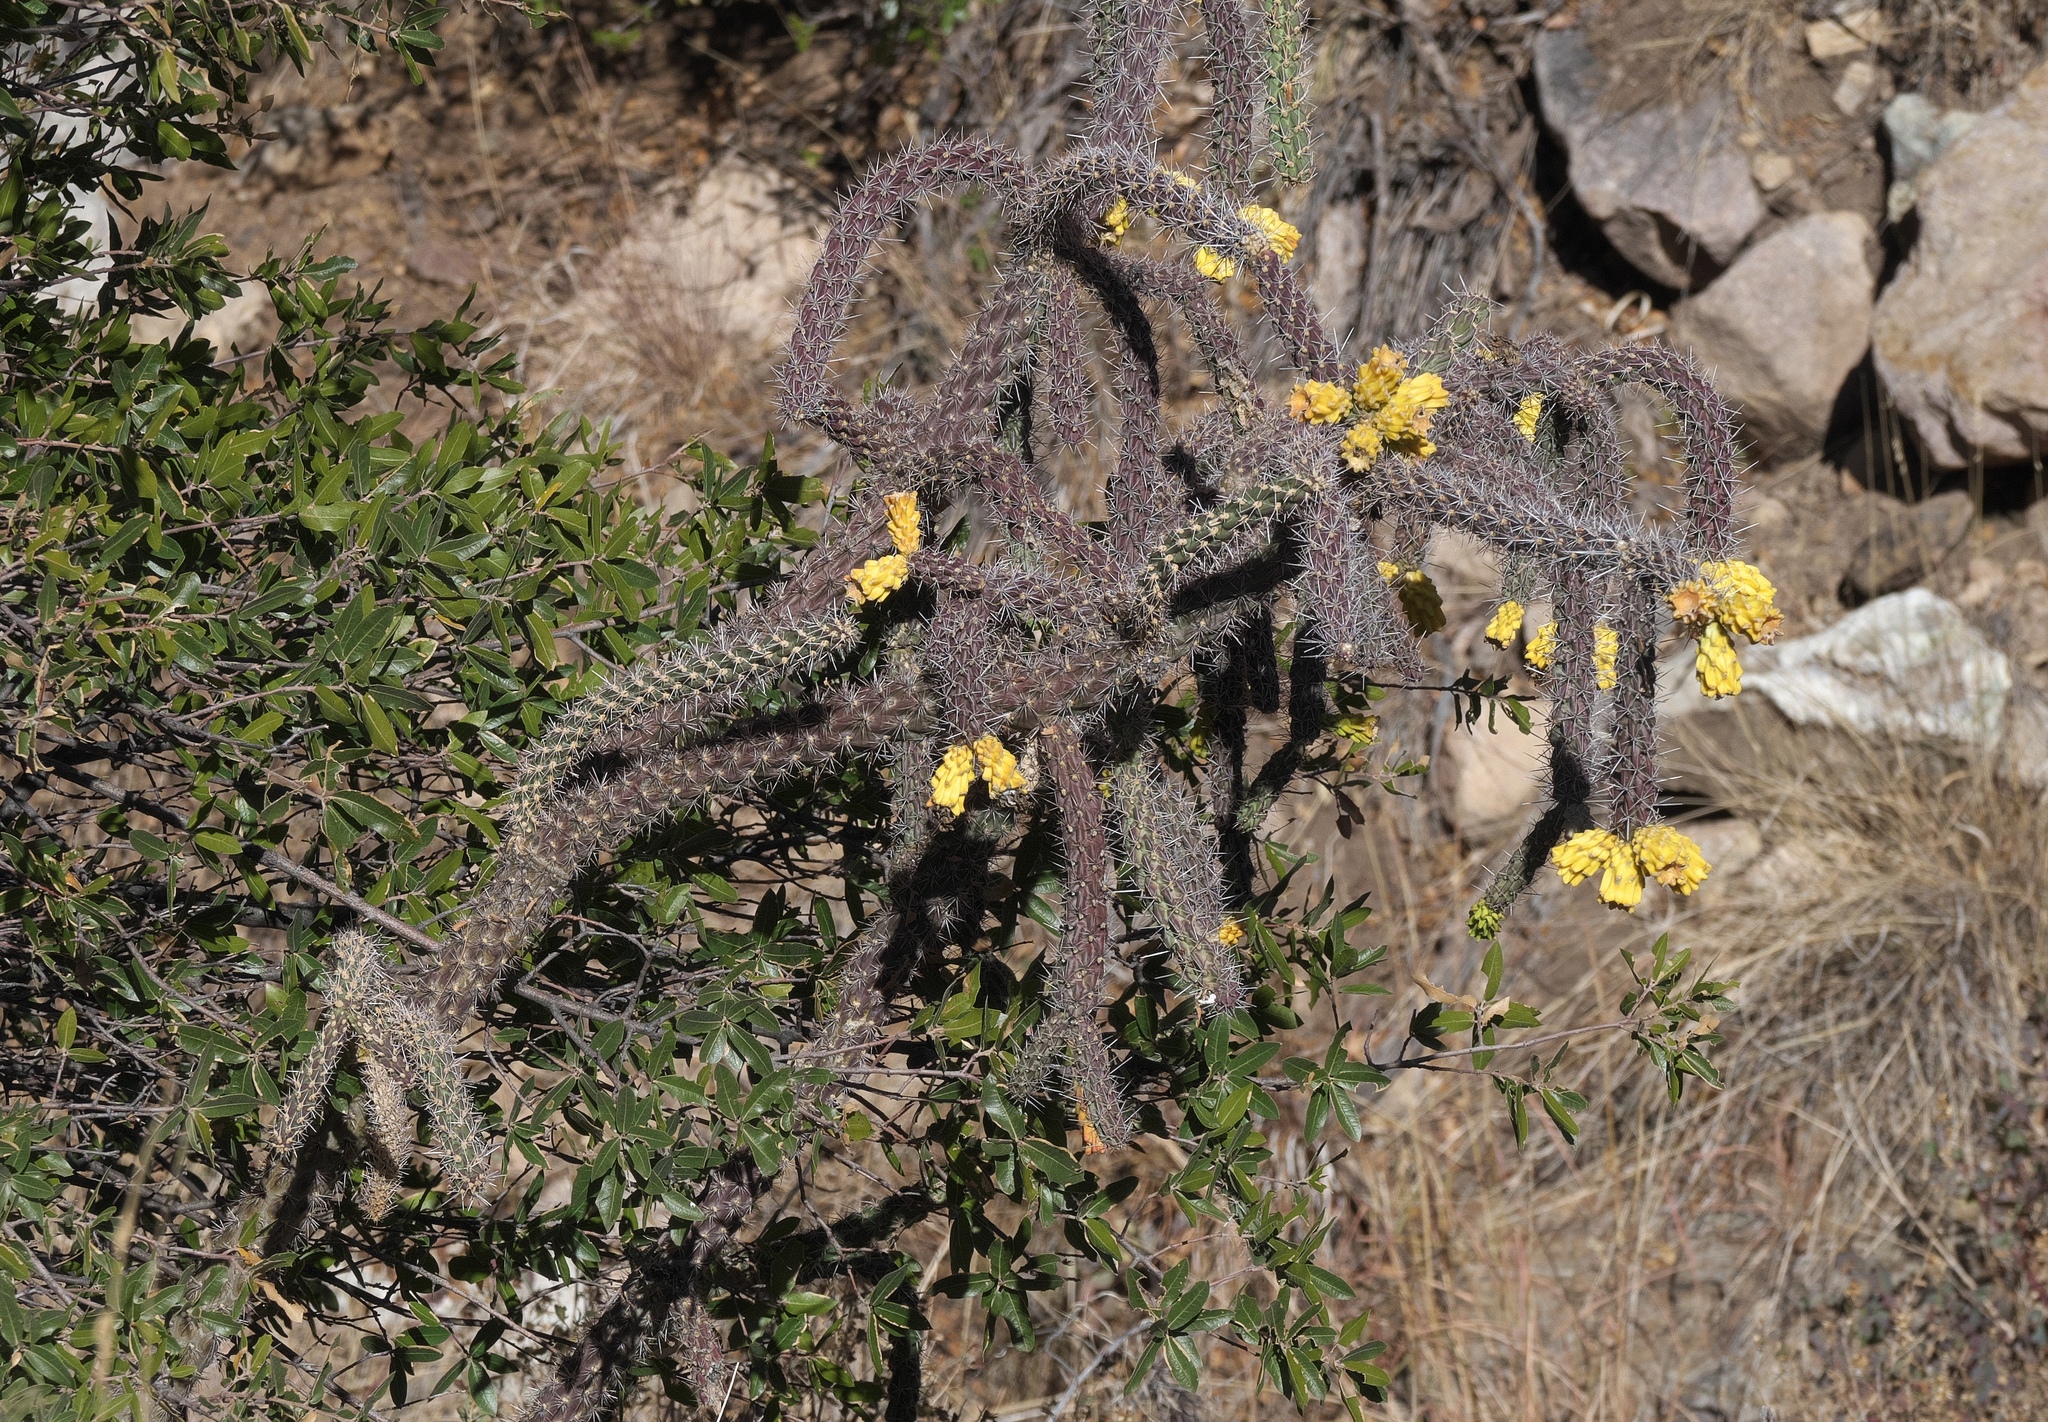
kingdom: Plantae
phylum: Tracheophyta
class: Magnoliopsida
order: Caryophyllales
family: Cactaceae
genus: Cylindropuntia
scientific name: Cylindropuntia imbricata
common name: Candelabrum cactus
